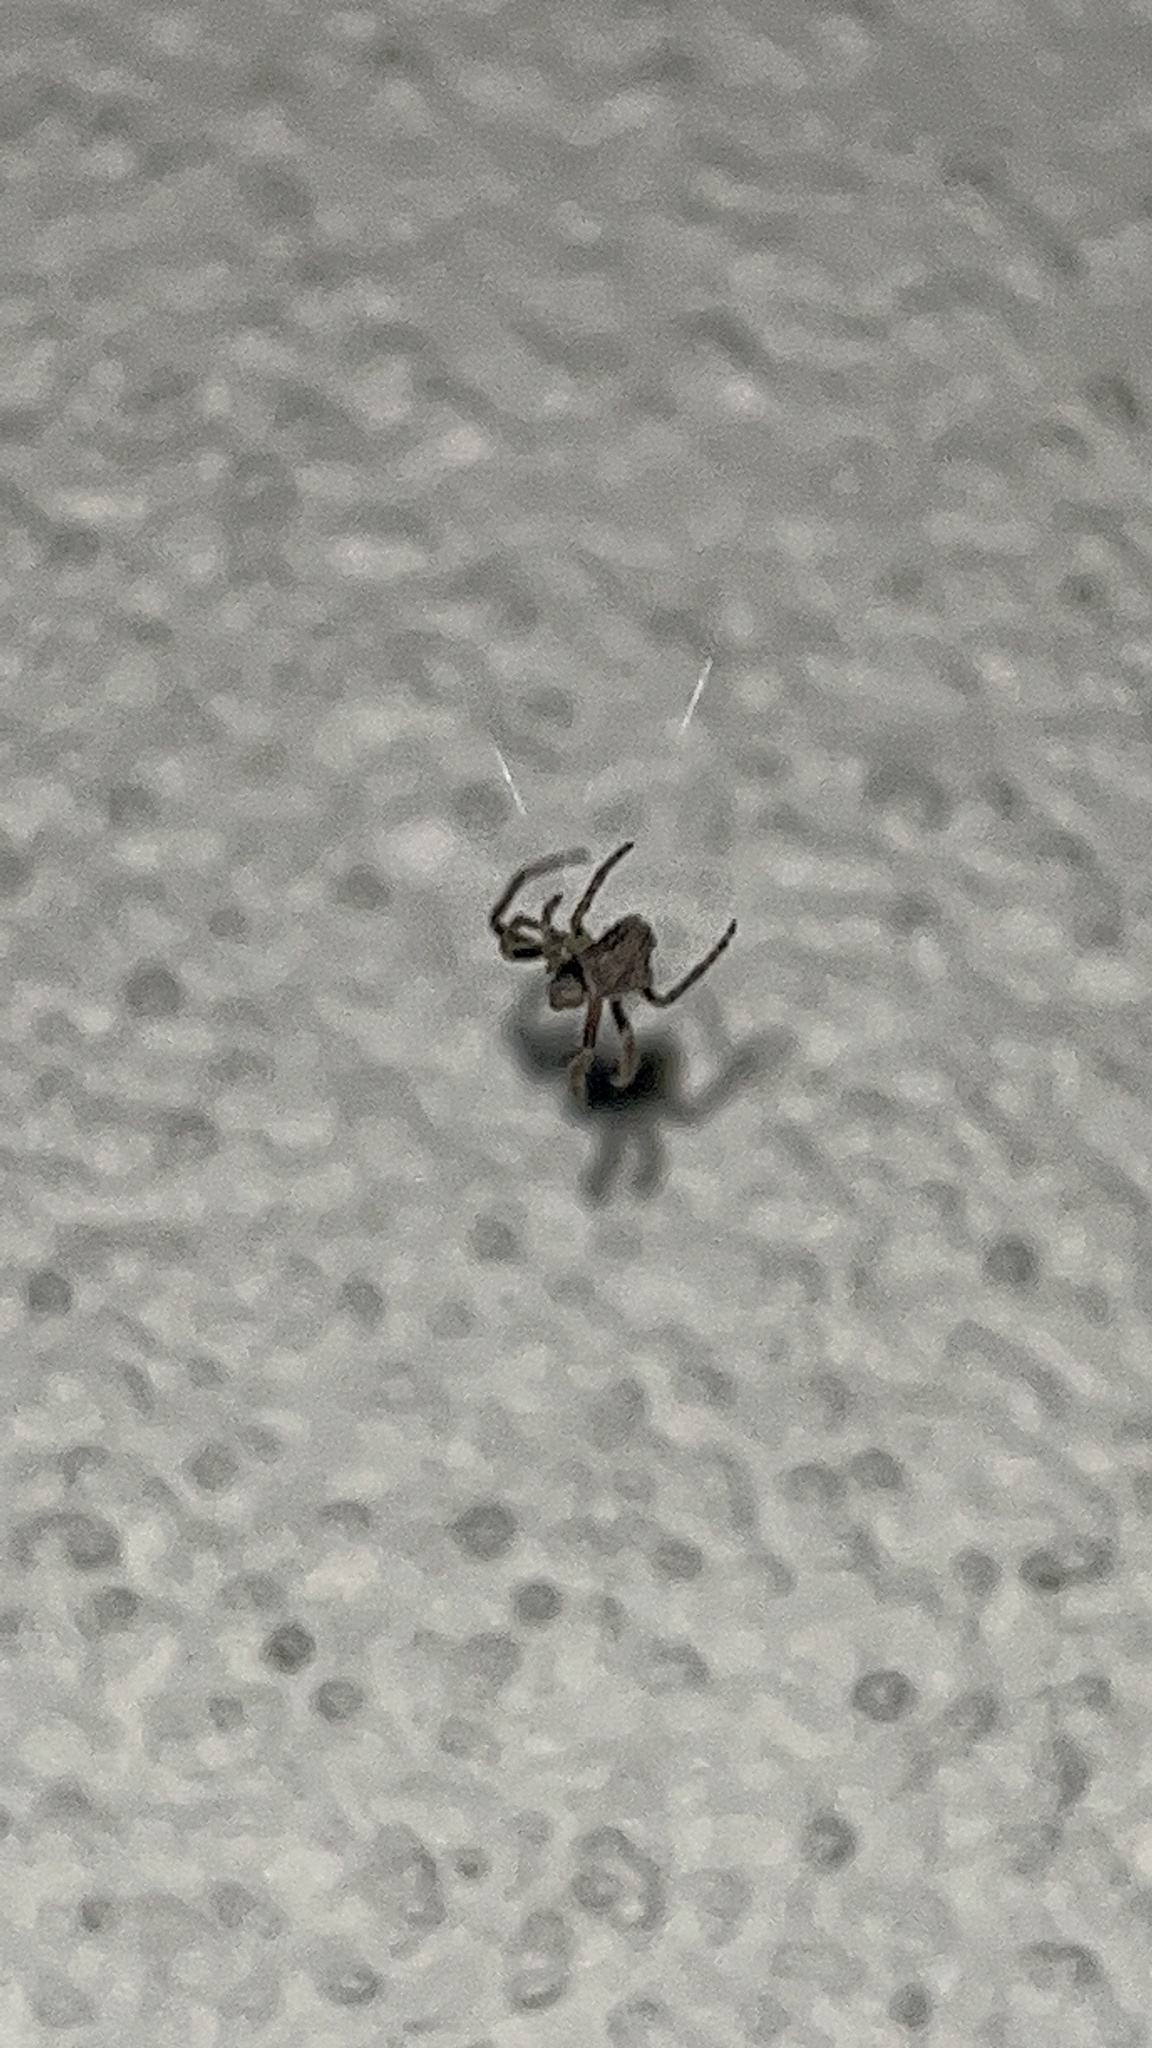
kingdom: Animalia
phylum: Arthropoda
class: Arachnida
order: Araneae
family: Araneidae
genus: Eriophora
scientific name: Eriophora pustulosa
